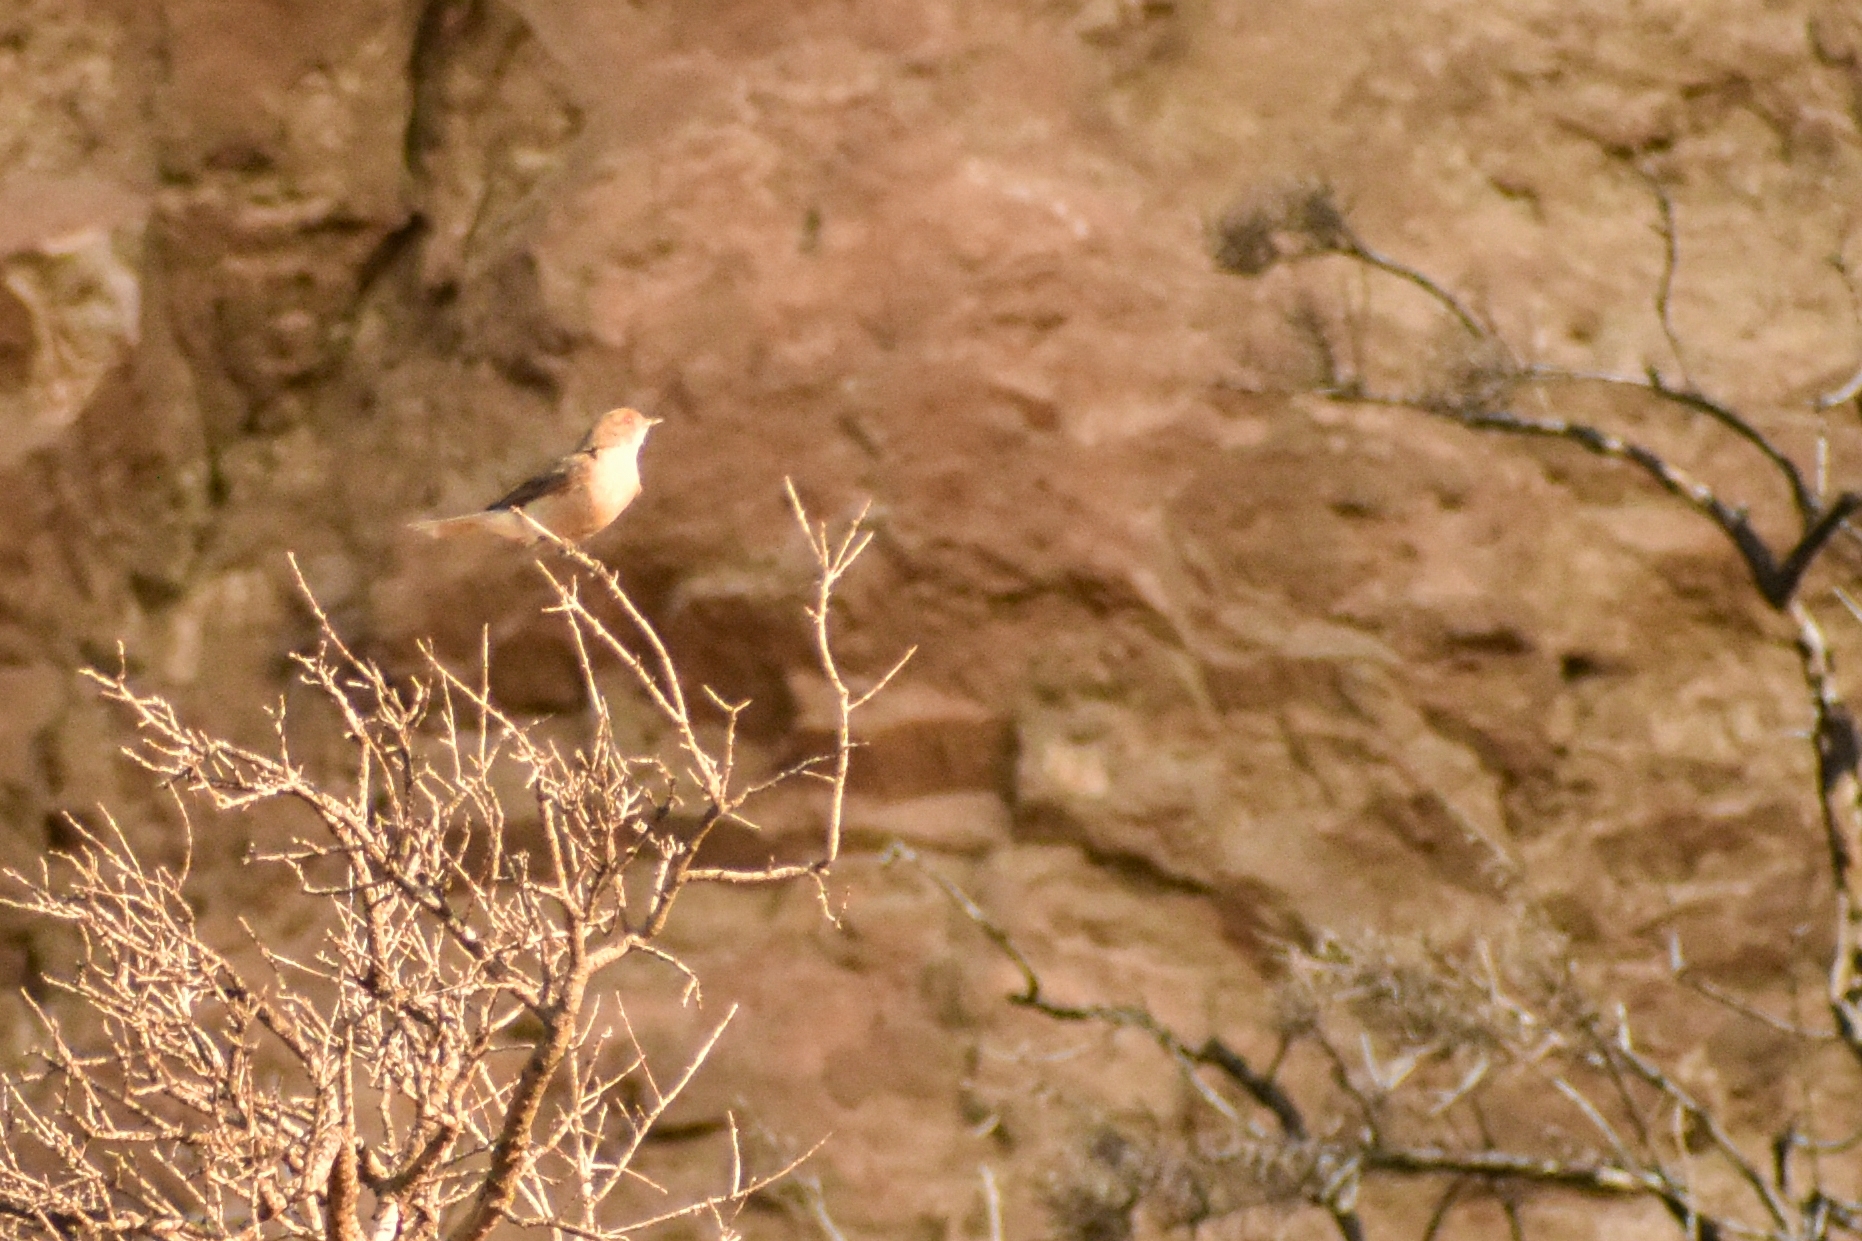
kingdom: Animalia
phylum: Chordata
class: Aves
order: Passeriformes
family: Tyrannidae
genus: Xolmis
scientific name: Xolmis pyrope
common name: Fire-eyed diucon
